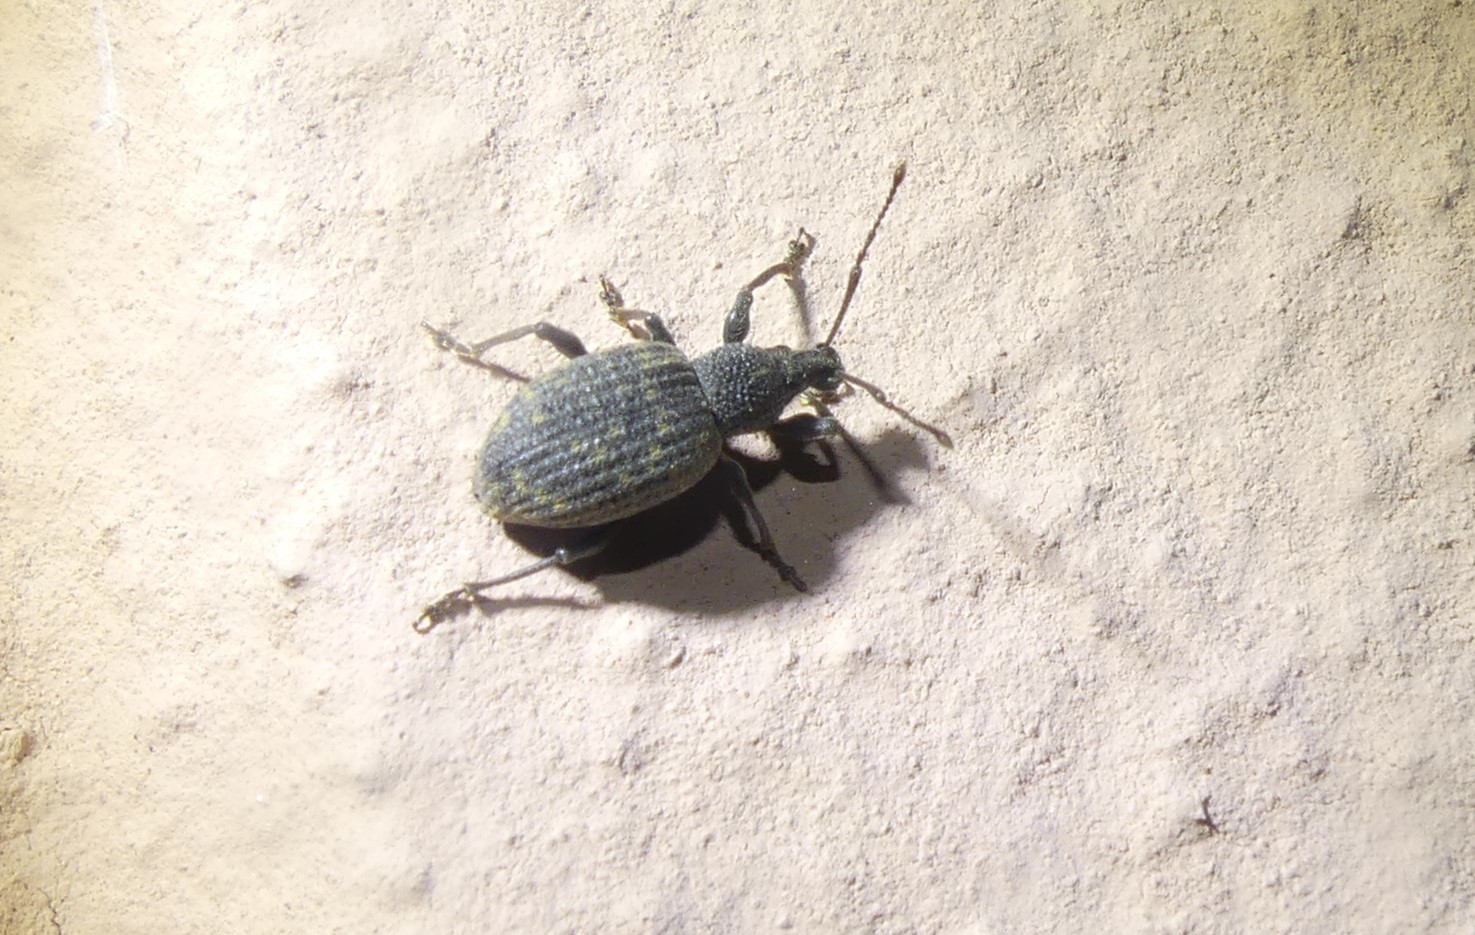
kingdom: Animalia
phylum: Arthropoda
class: Insecta
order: Coleoptera
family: Curculionidae
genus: Otiorhynchus
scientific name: Otiorhynchus sulcatus
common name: Black vine weevil
